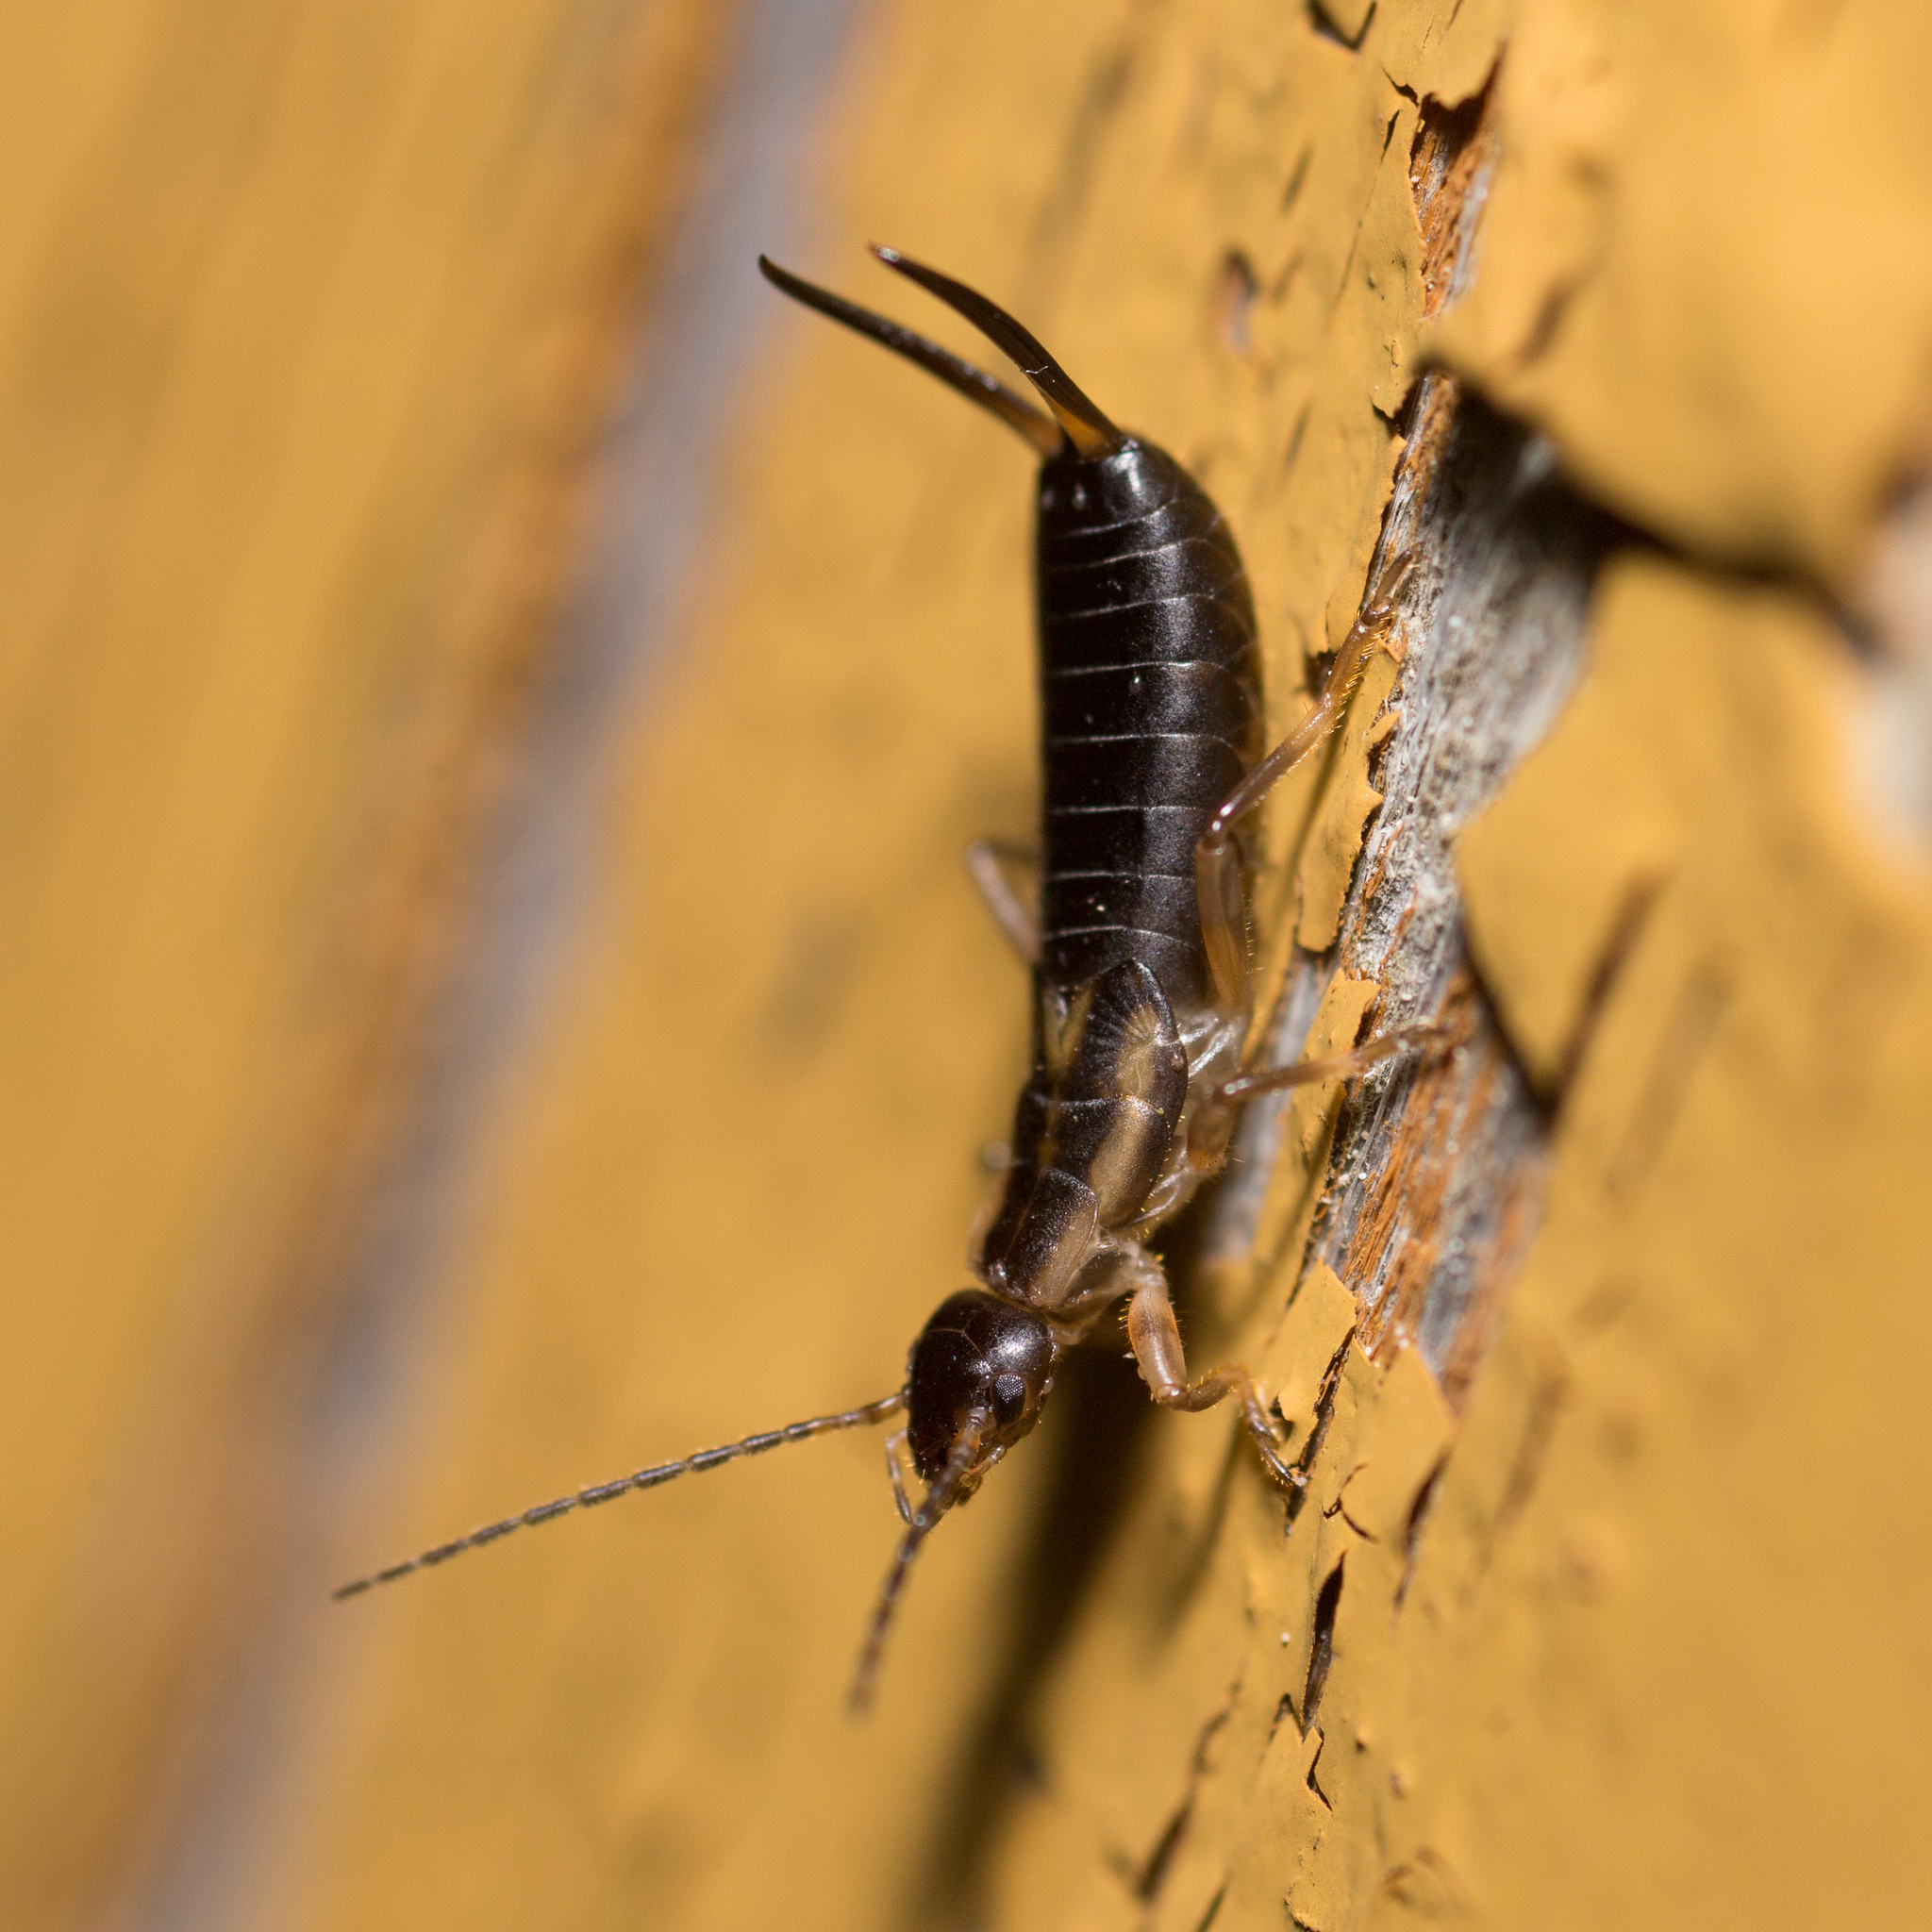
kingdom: Animalia
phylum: Arthropoda
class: Insecta
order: Dermaptera
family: Forficulidae
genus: Forficula
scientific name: Forficula auricularia
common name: European earwig
